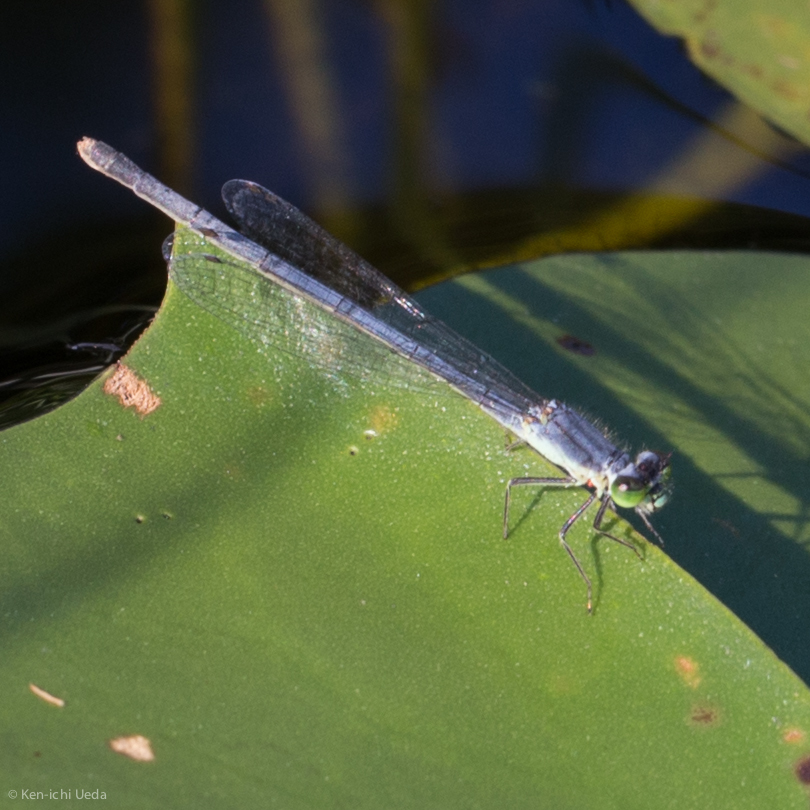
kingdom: Animalia
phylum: Arthropoda
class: Insecta
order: Odonata
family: Coenagrionidae
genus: Ischnura
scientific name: Ischnura verticalis
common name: Eastern forktail
